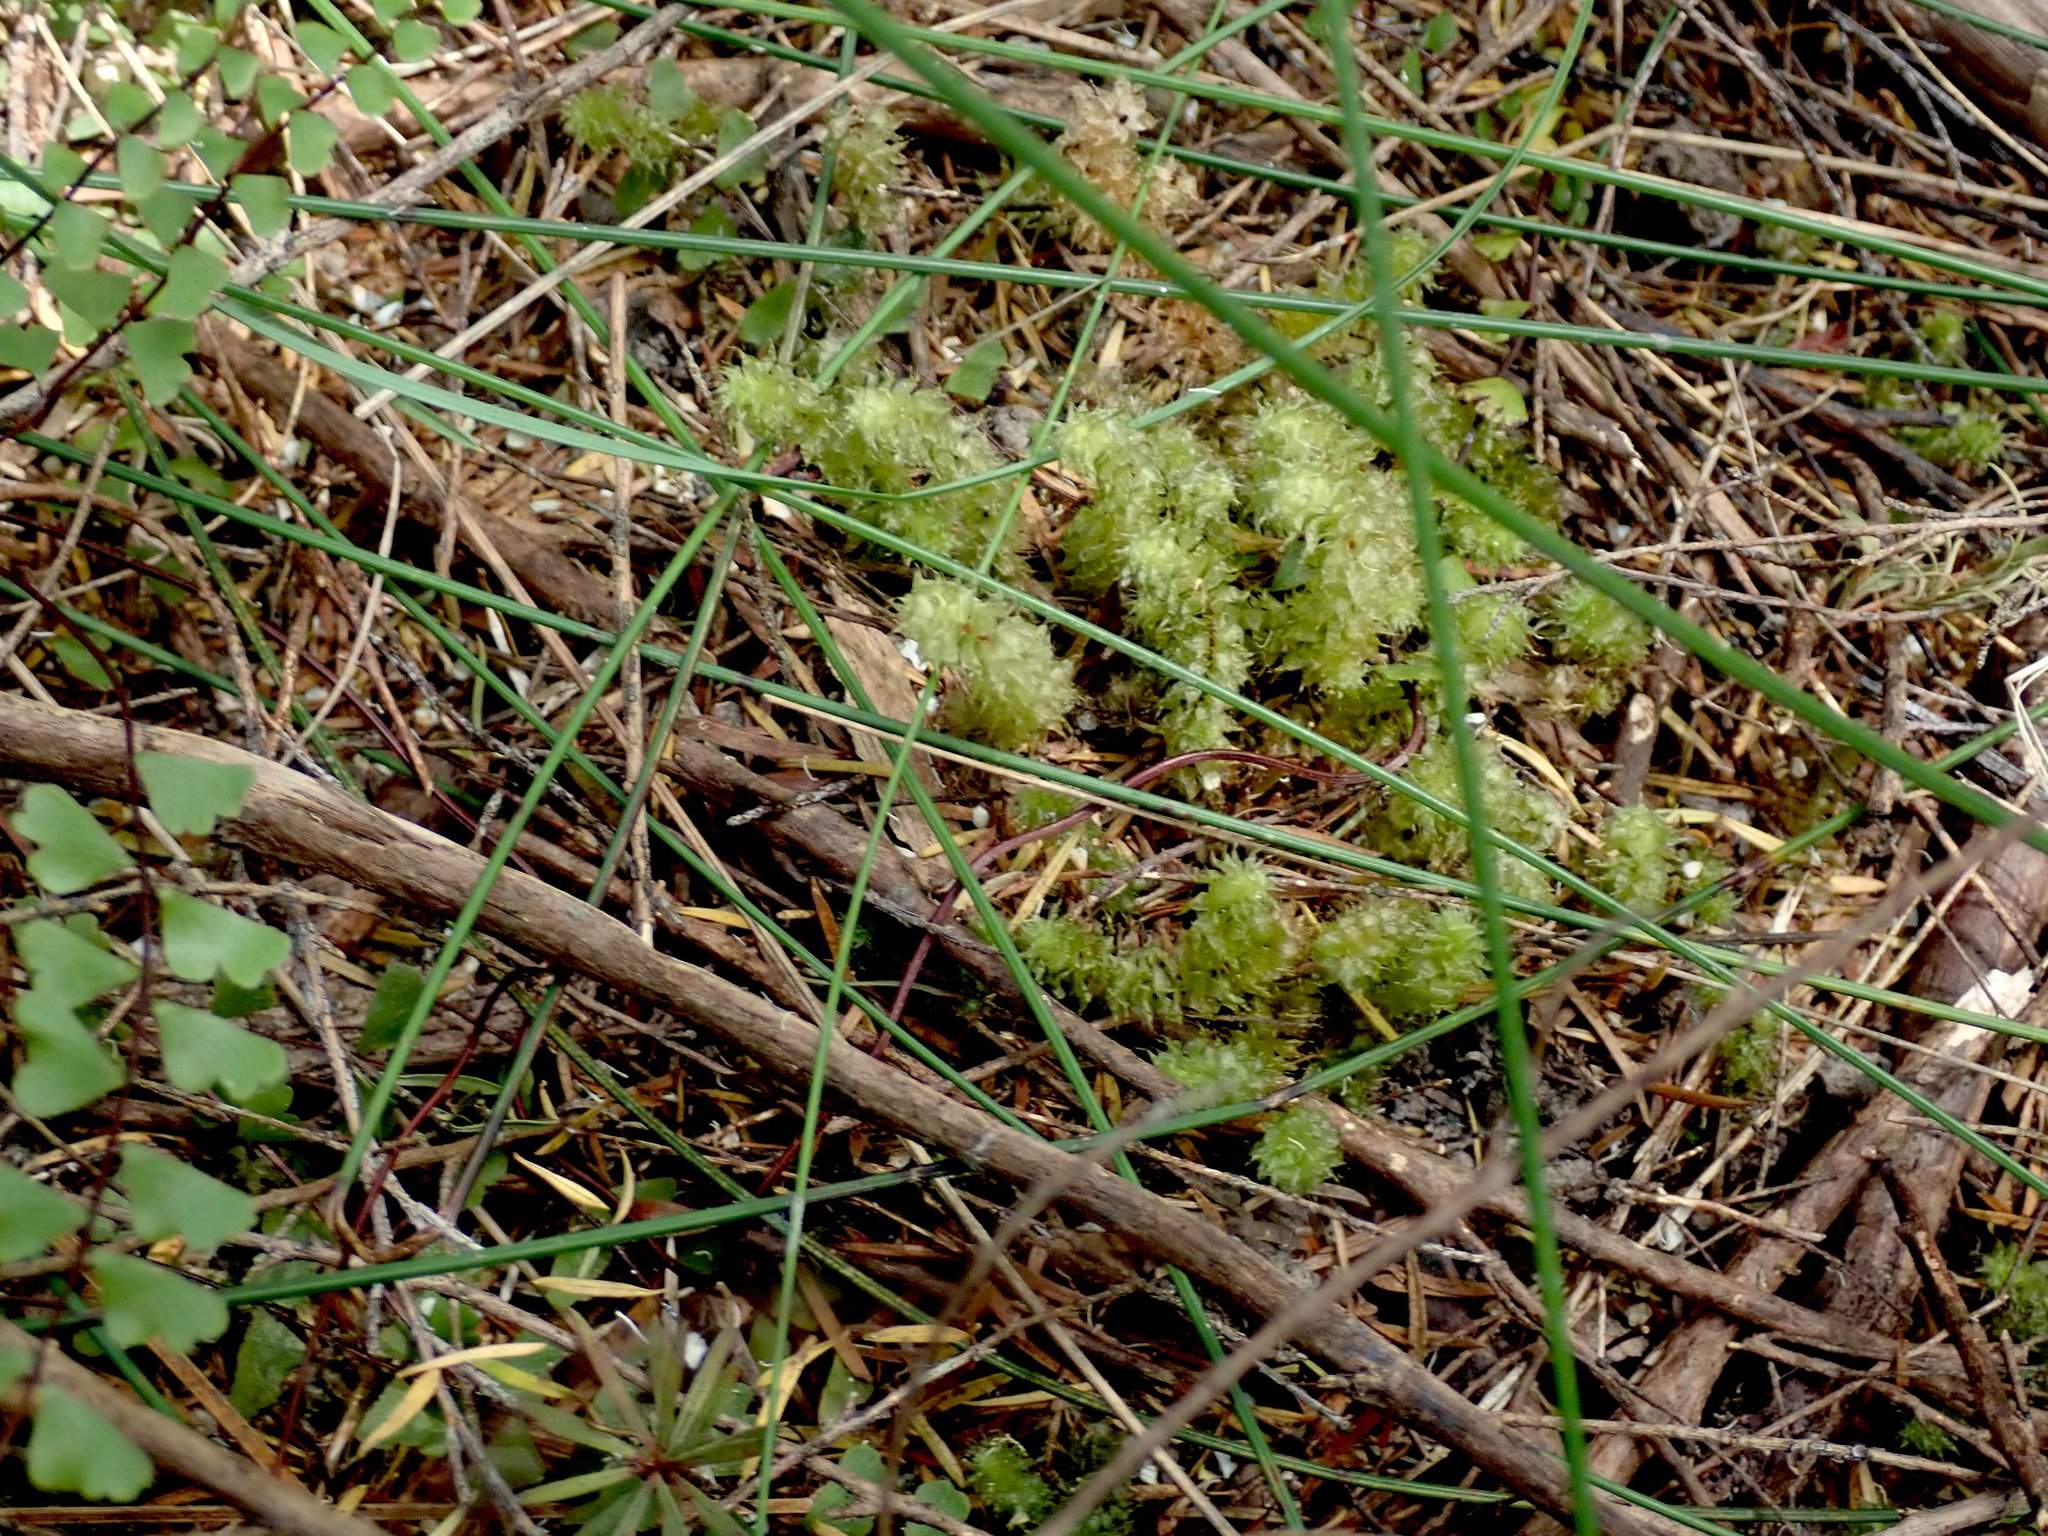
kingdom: Plantae
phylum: Bryophyta
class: Bryopsida
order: Ptychomniales
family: Ptychomniaceae
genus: Ptychomnion
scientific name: Ptychomnion aciculare
